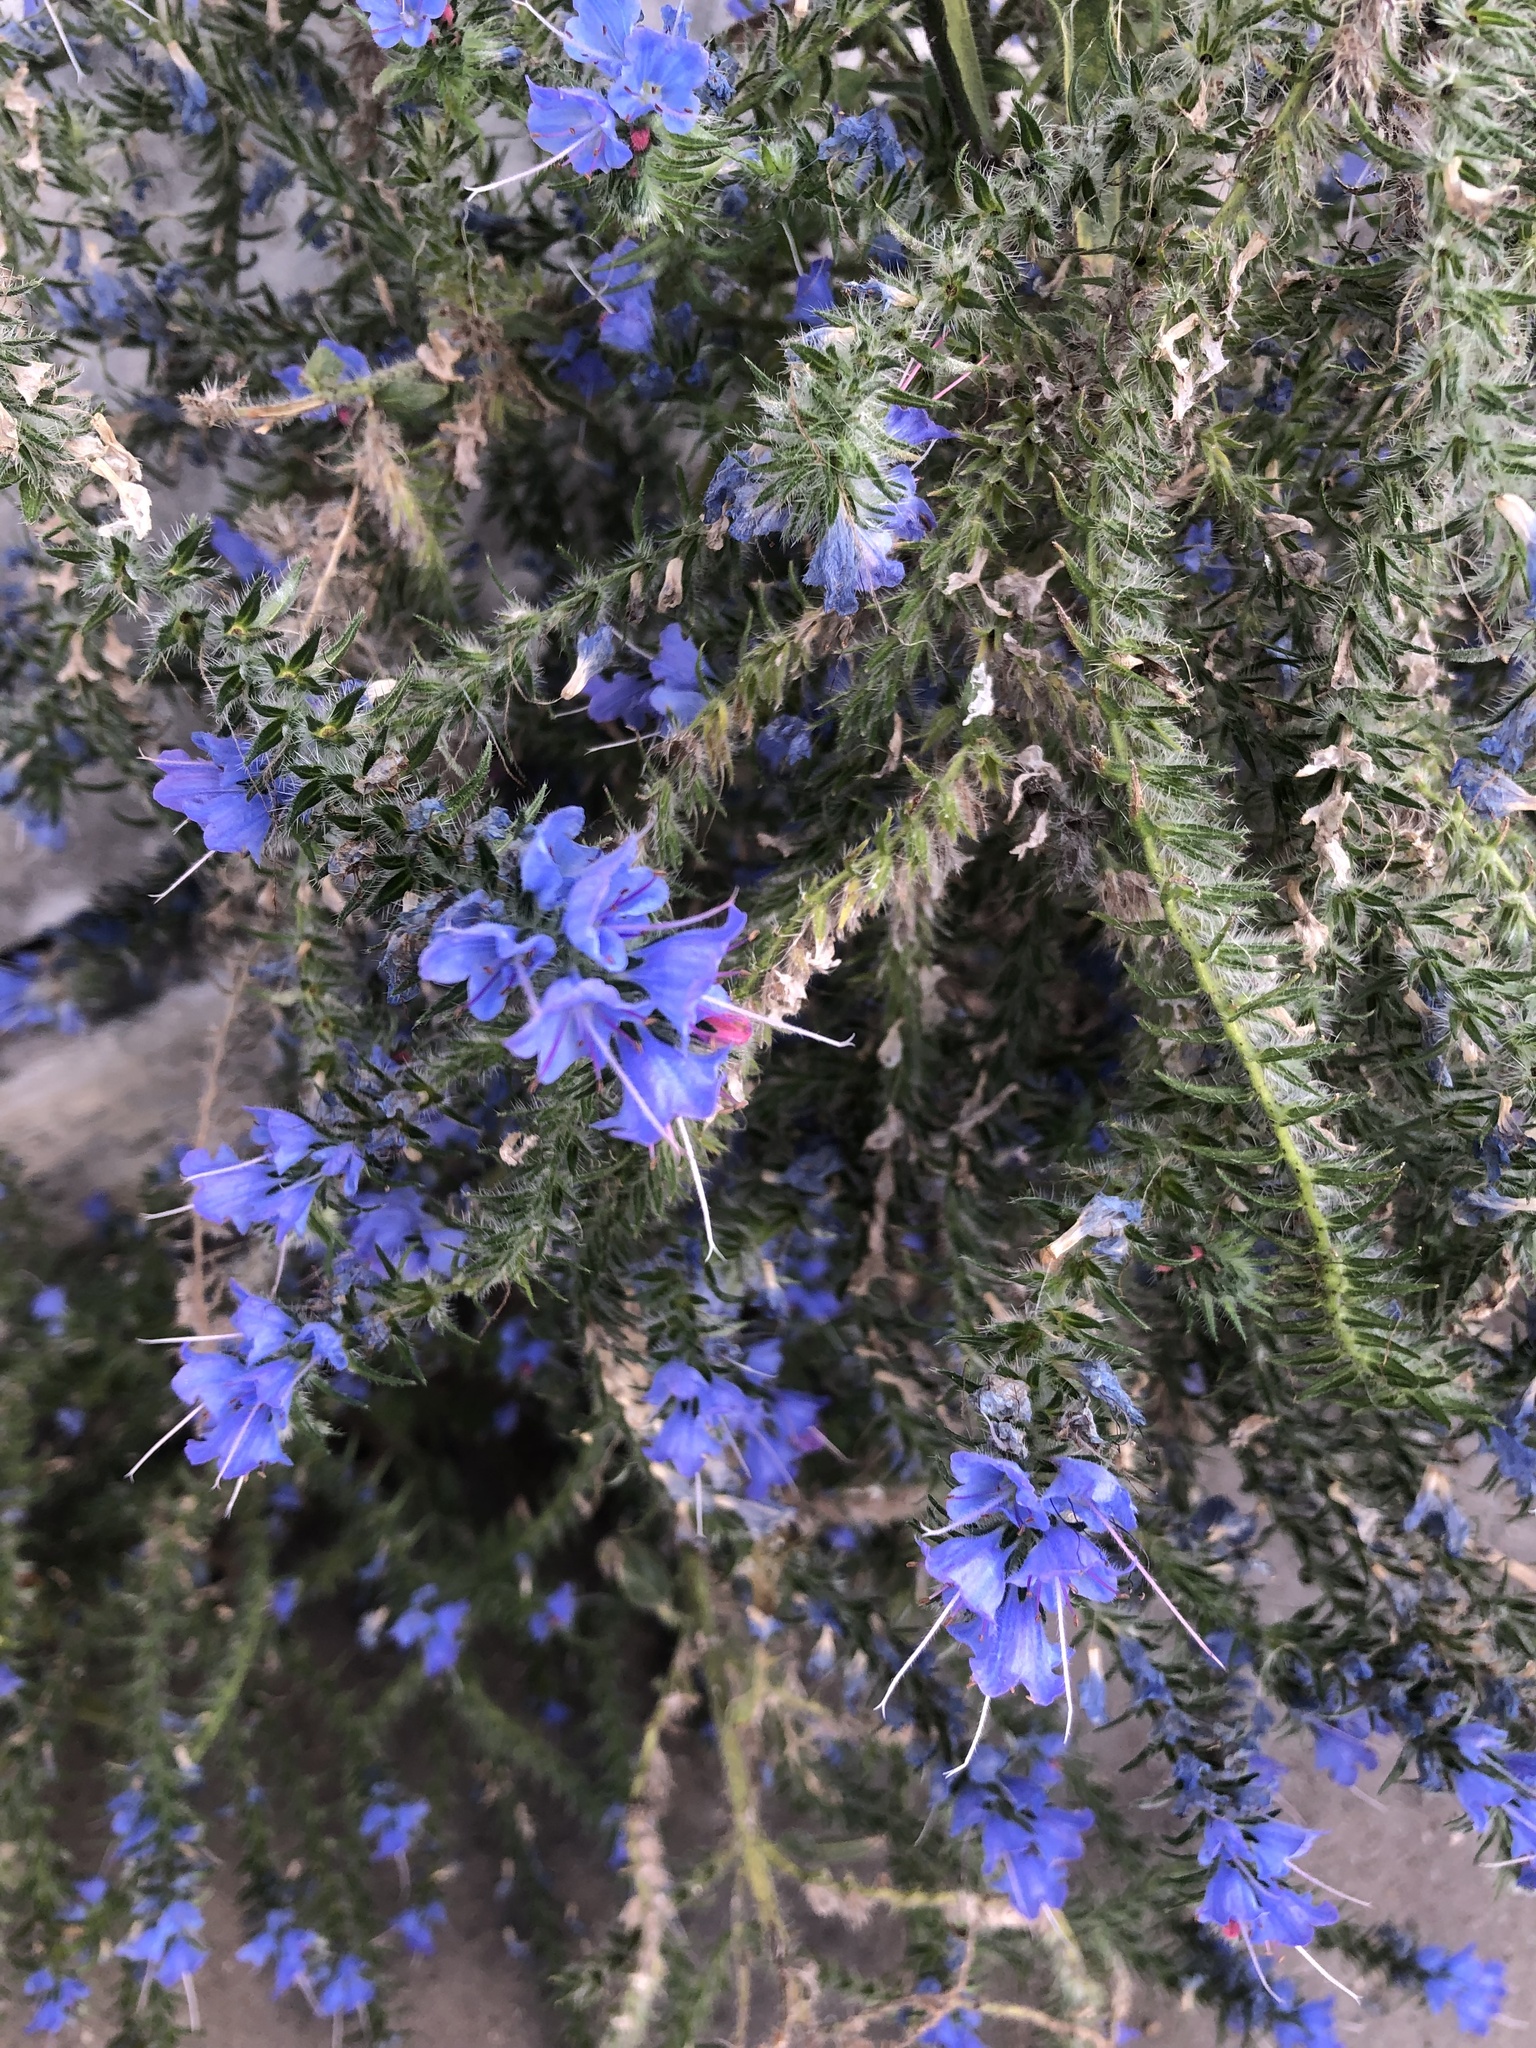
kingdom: Plantae
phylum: Tracheophyta
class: Magnoliopsida
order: Boraginales
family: Boraginaceae
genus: Echium
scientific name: Echium vulgare
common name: Common viper's bugloss
